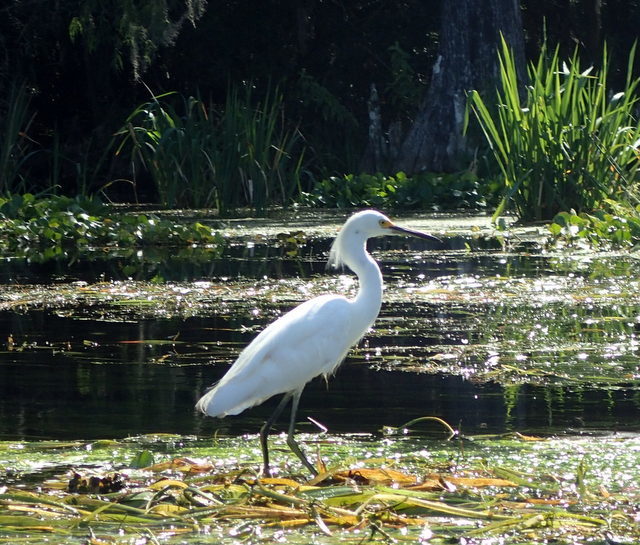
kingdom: Animalia
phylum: Chordata
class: Aves
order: Pelecaniformes
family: Ardeidae
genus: Egretta
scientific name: Egretta thula
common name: Snowy egret
